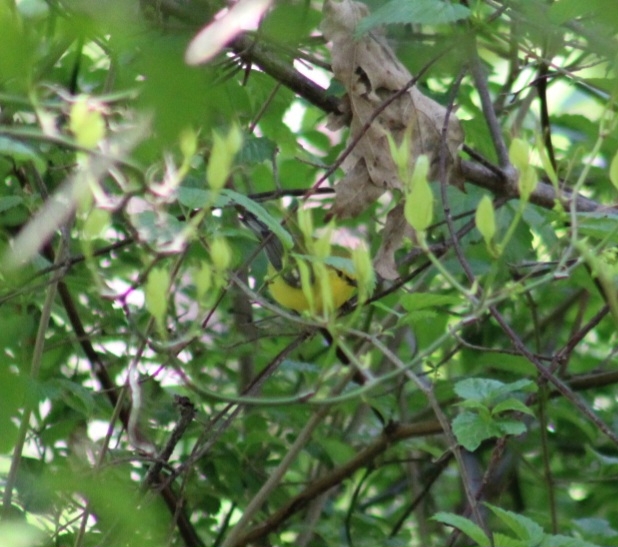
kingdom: Animalia
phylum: Chordata
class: Aves
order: Passeriformes
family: Parulidae
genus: Vermivora
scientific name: Vermivora cyanoptera
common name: Blue-winged warbler
